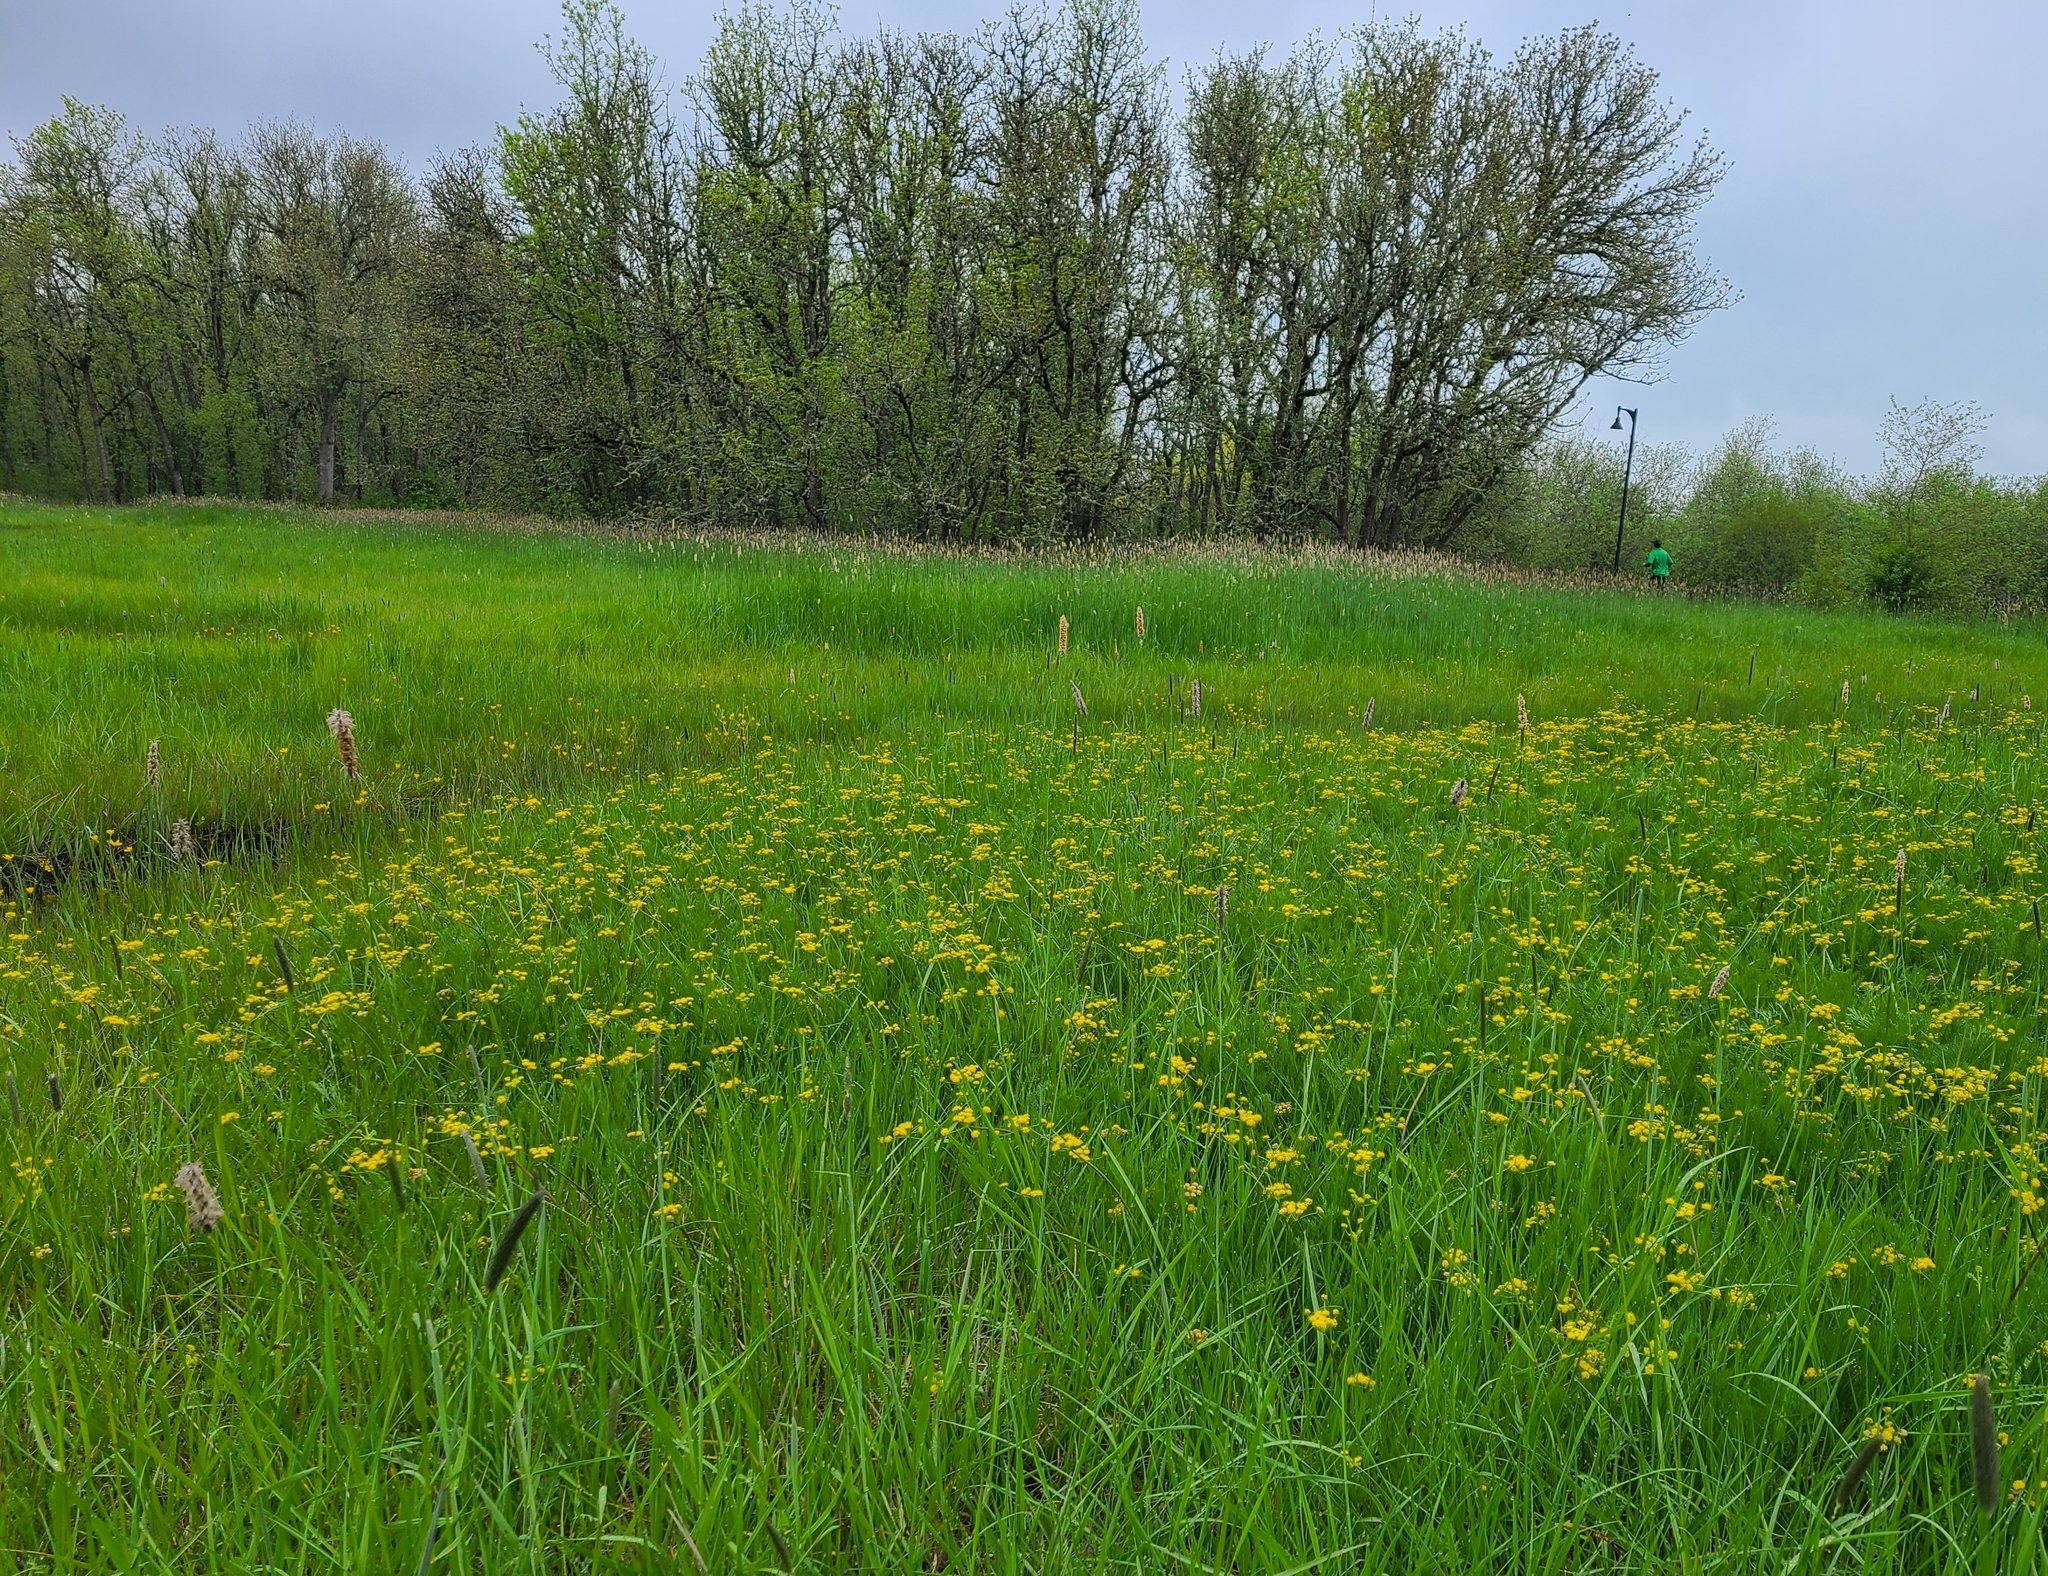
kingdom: Plantae
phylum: Tracheophyta
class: Magnoliopsida
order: Apiales
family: Apiaceae
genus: Lomatium
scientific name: Lomatium bradshawii
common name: Bradshaw's desert-parsley
